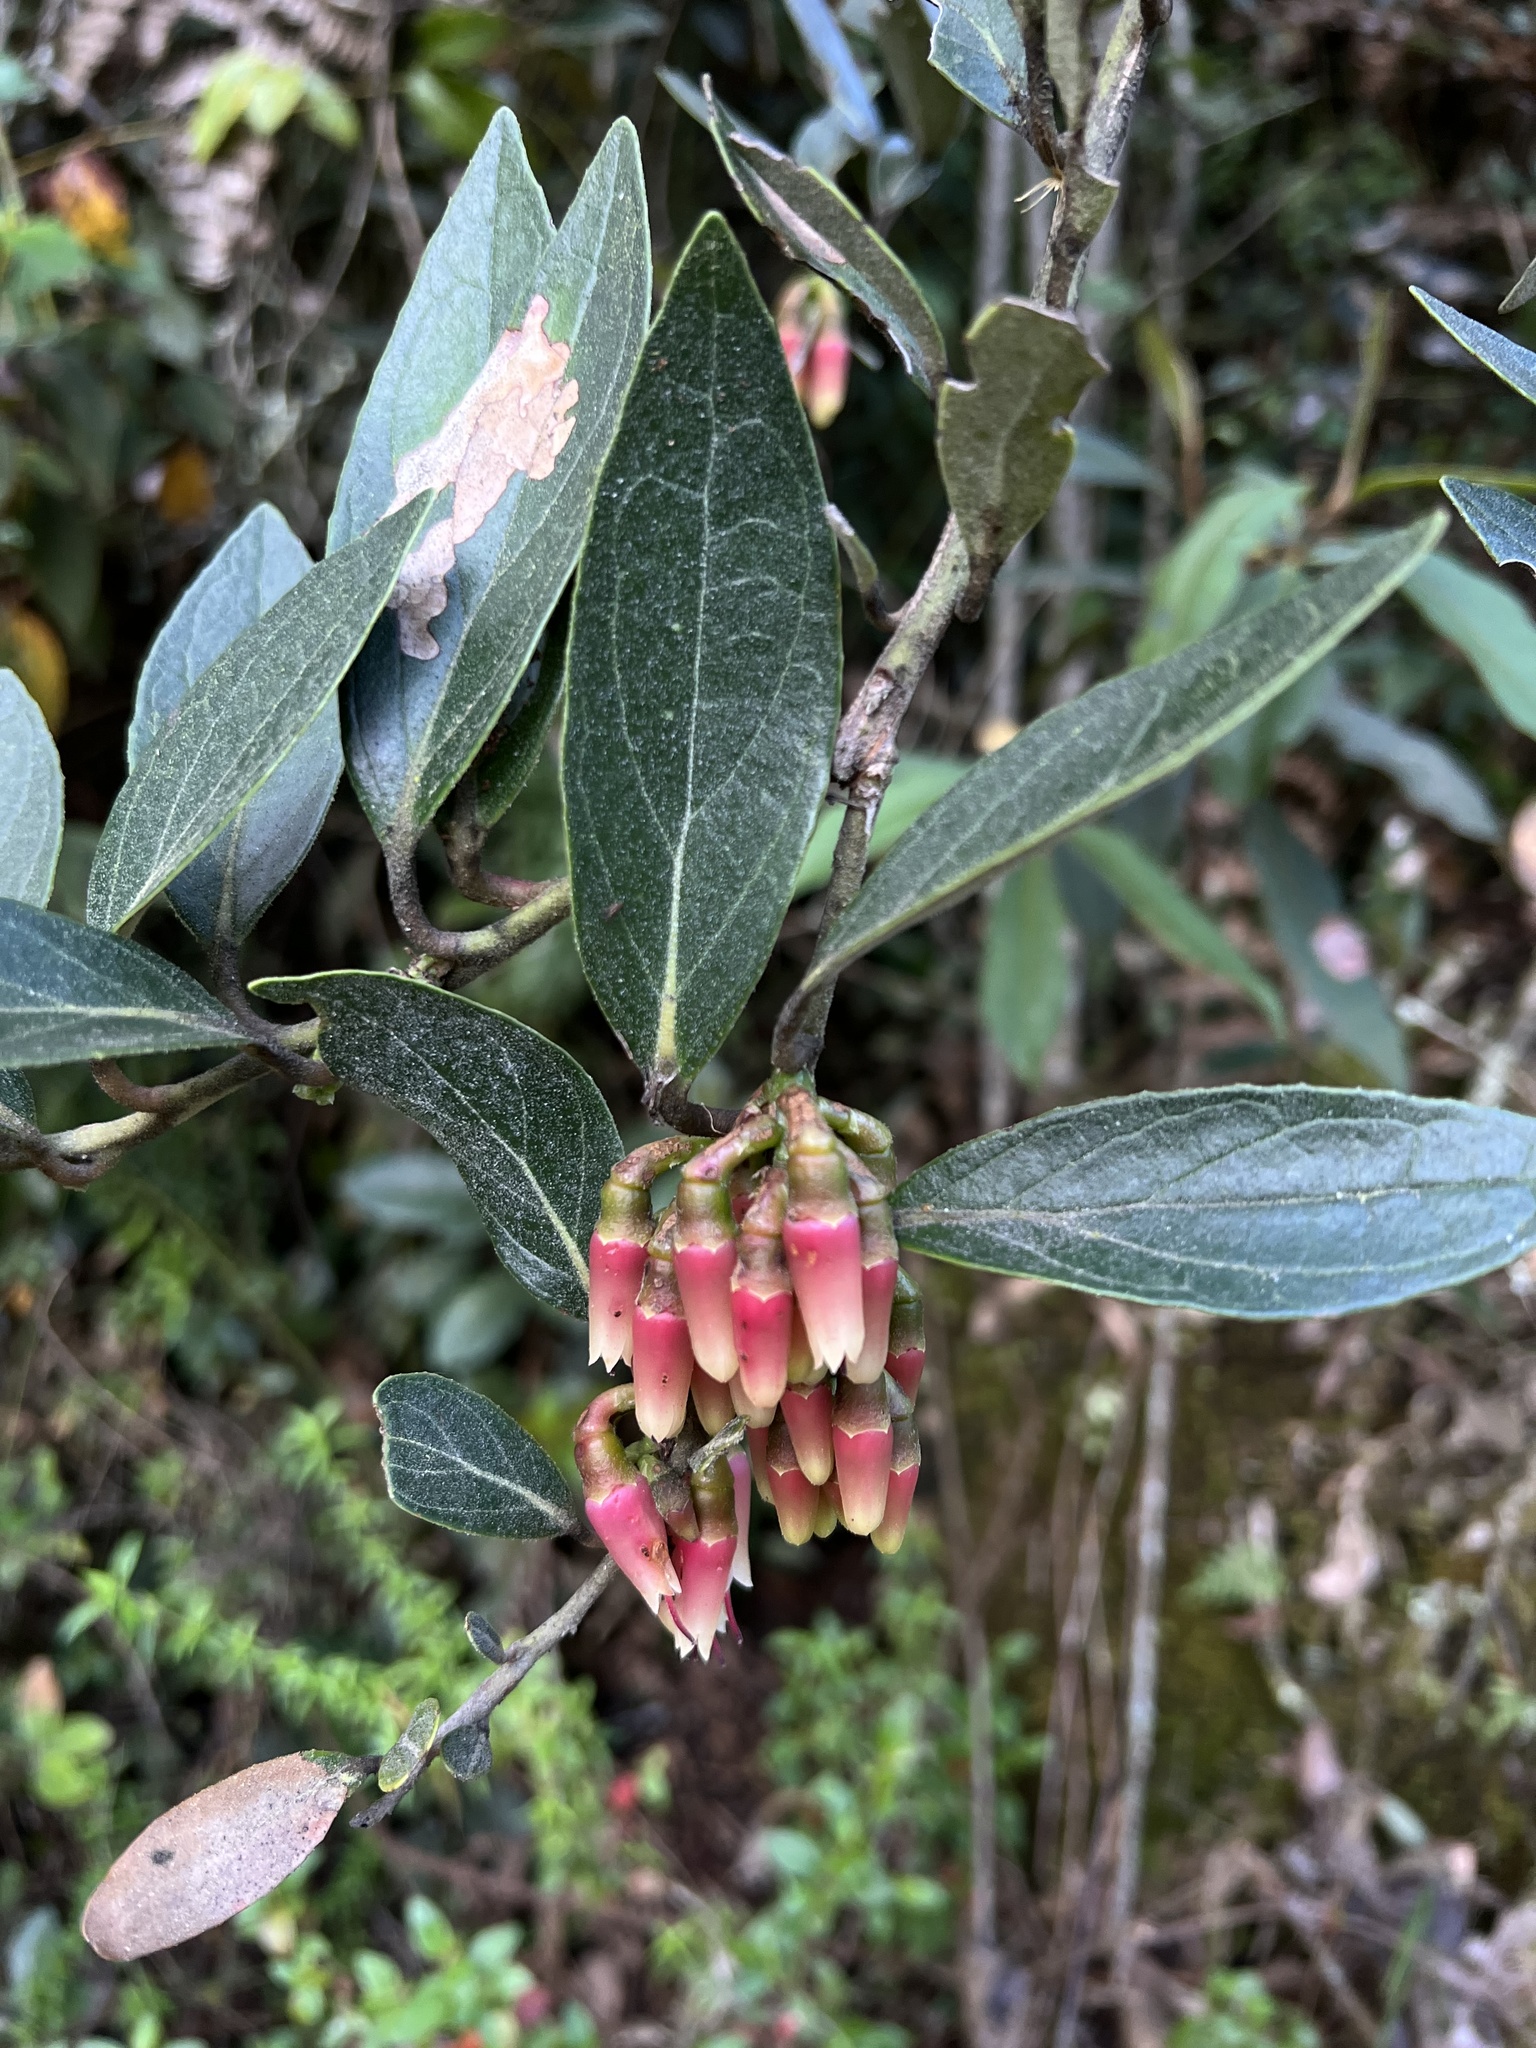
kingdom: Plantae
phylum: Tracheophyta
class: Magnoliopsida
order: Ericales
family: Ericaceae
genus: Macleania
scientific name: Macleania rupestris
